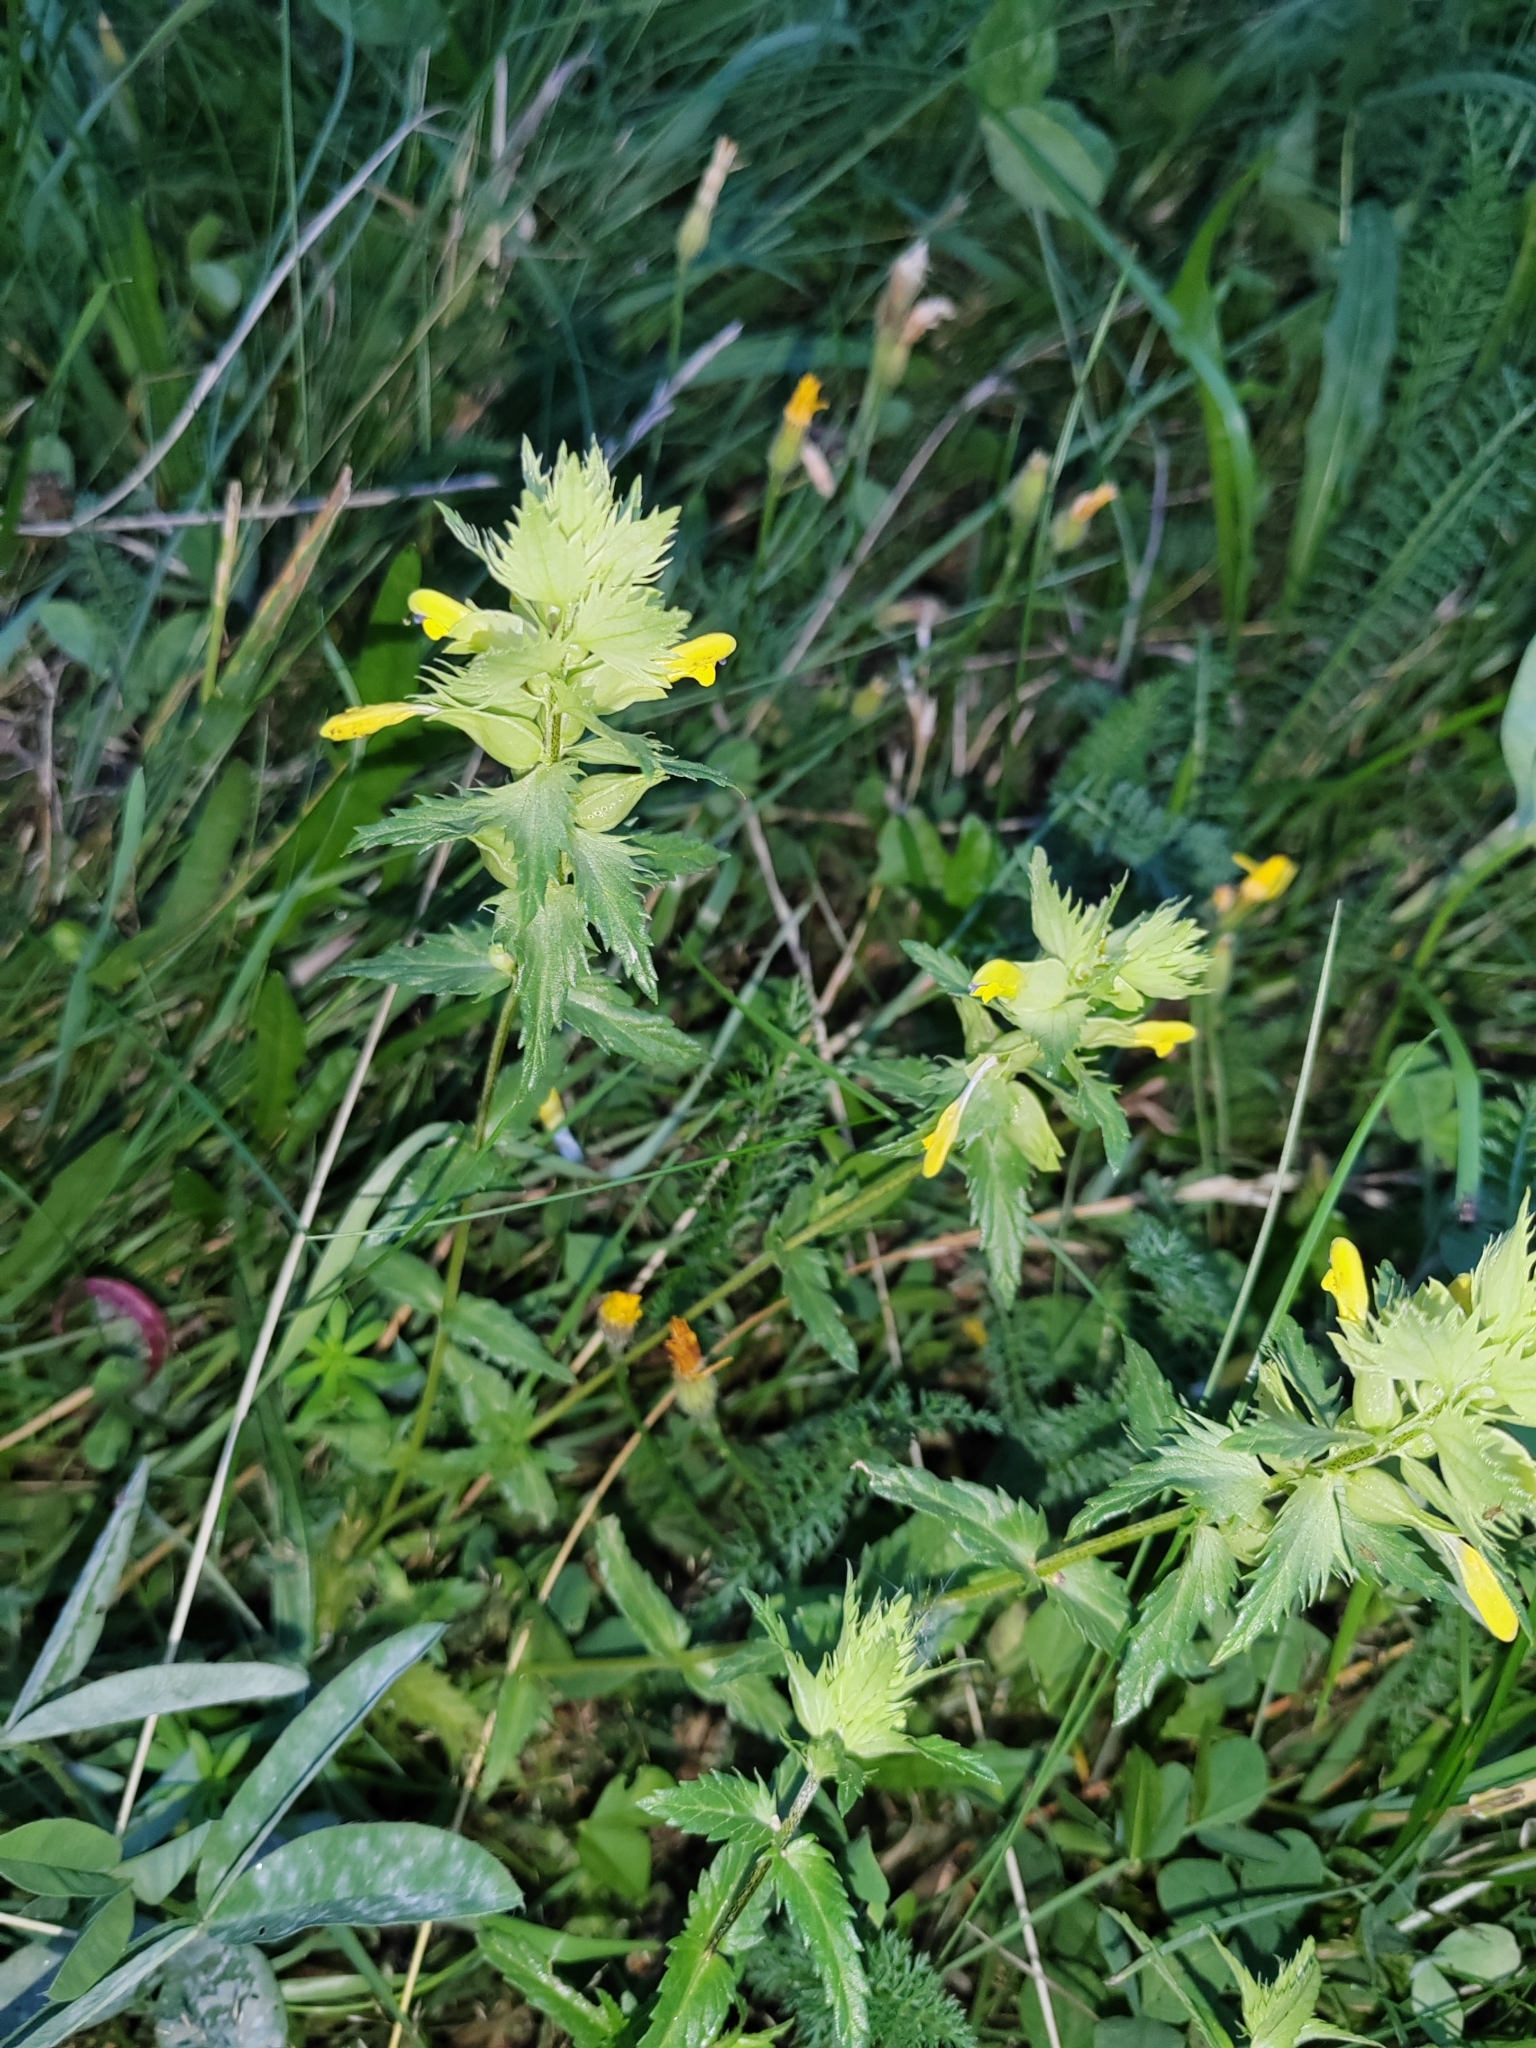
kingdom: Plantae
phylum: Tracheophyta
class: Magnoliopsida
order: Lamiales
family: Orobanchaceae
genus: Rhinanthus
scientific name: Rhinanthus serotinus
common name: Late-flowering yellow rattle
